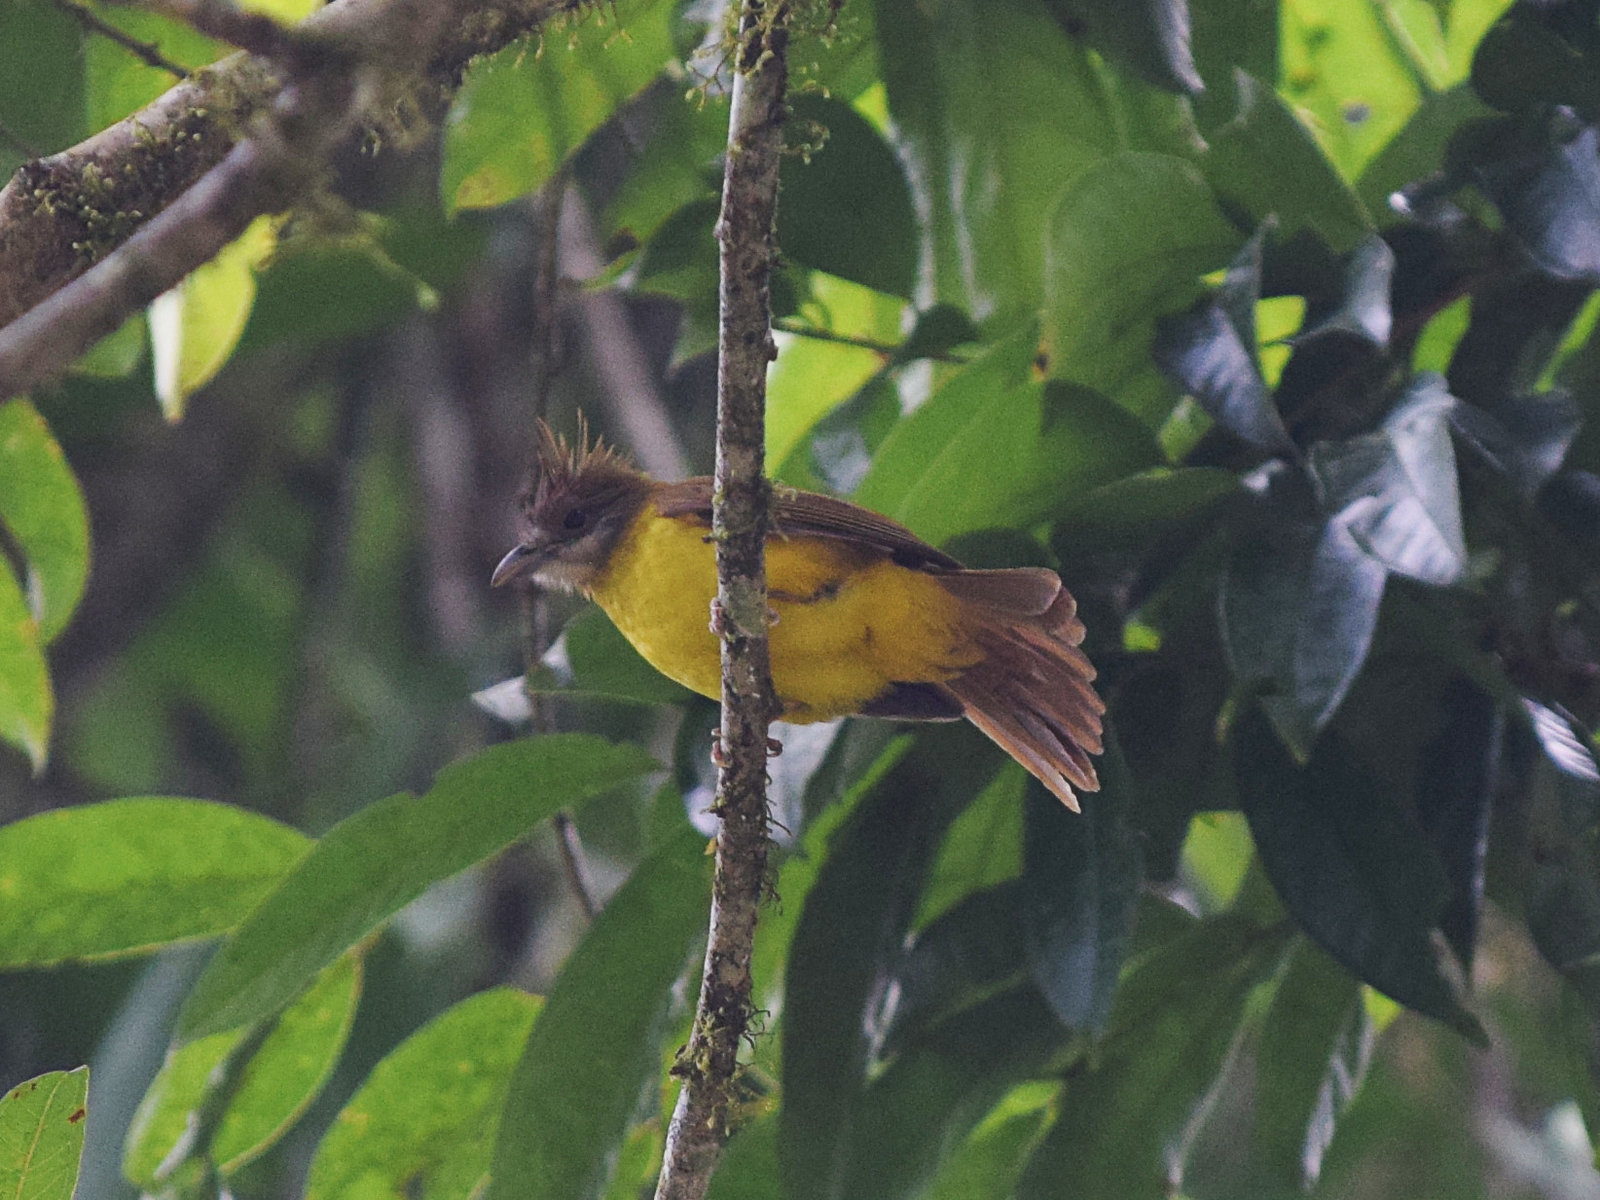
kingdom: Animalia
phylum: Chordata
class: Aves
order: Passeriformes
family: Pycnonotidae
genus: Alophoixus
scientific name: Alophoixus flaveolus
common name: White-throated bulbul
